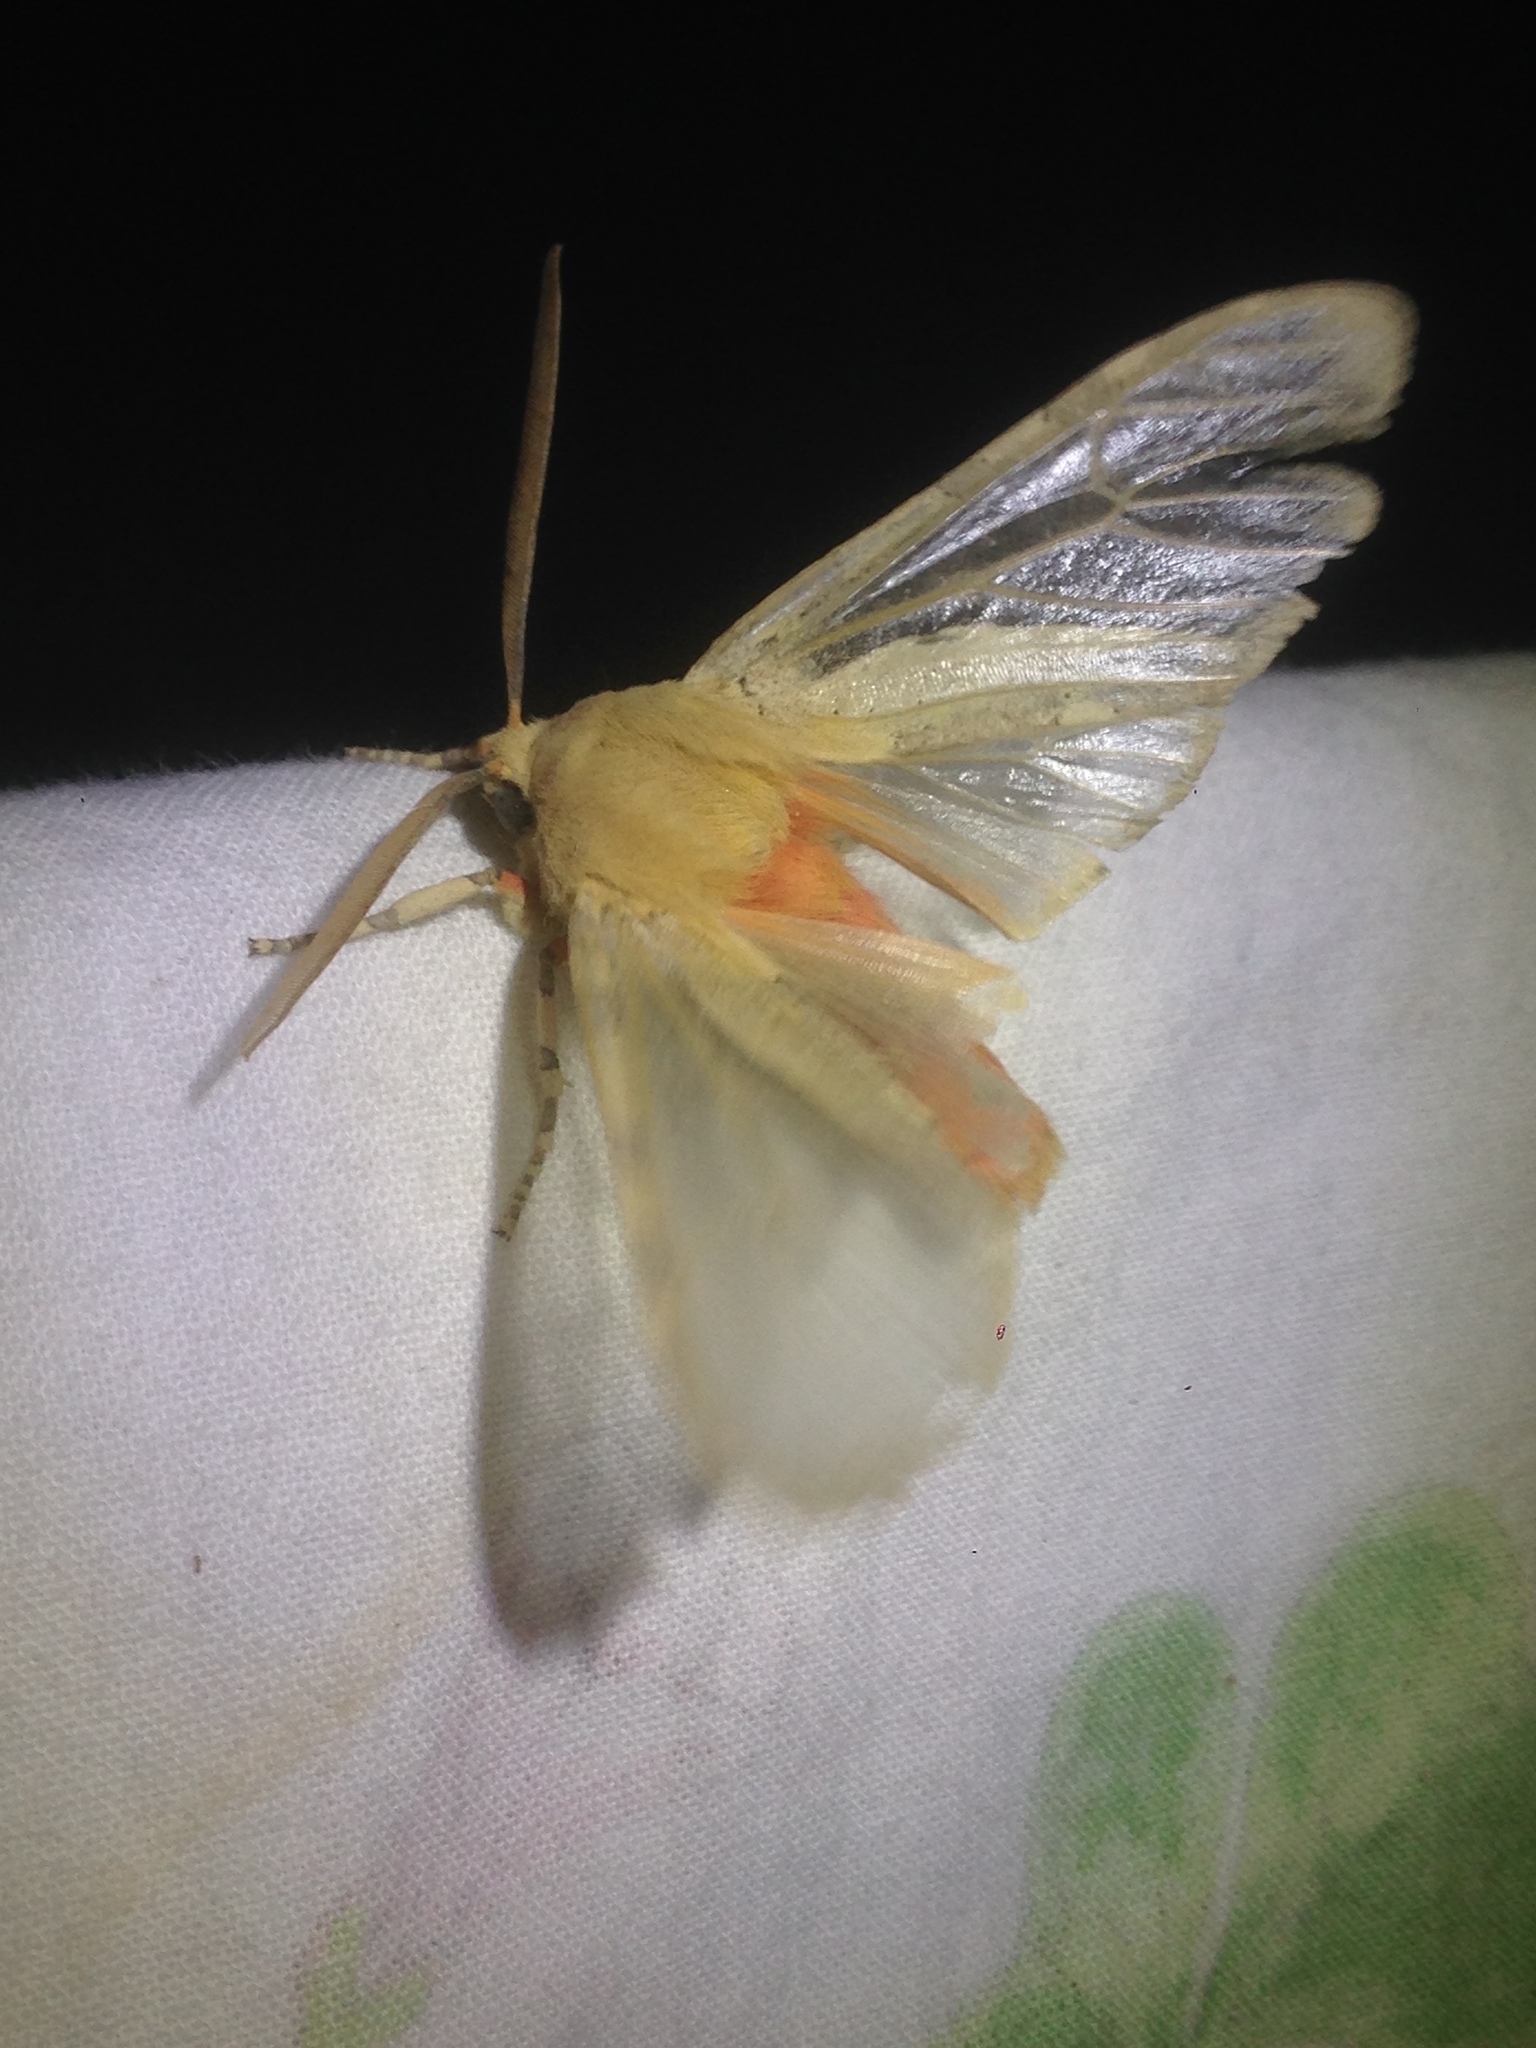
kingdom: Animalia
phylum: Arthropoda
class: Insecta
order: Lepidoptera
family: Erebidae
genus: Hemihyalea
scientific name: Hemihyalea edwardsii
